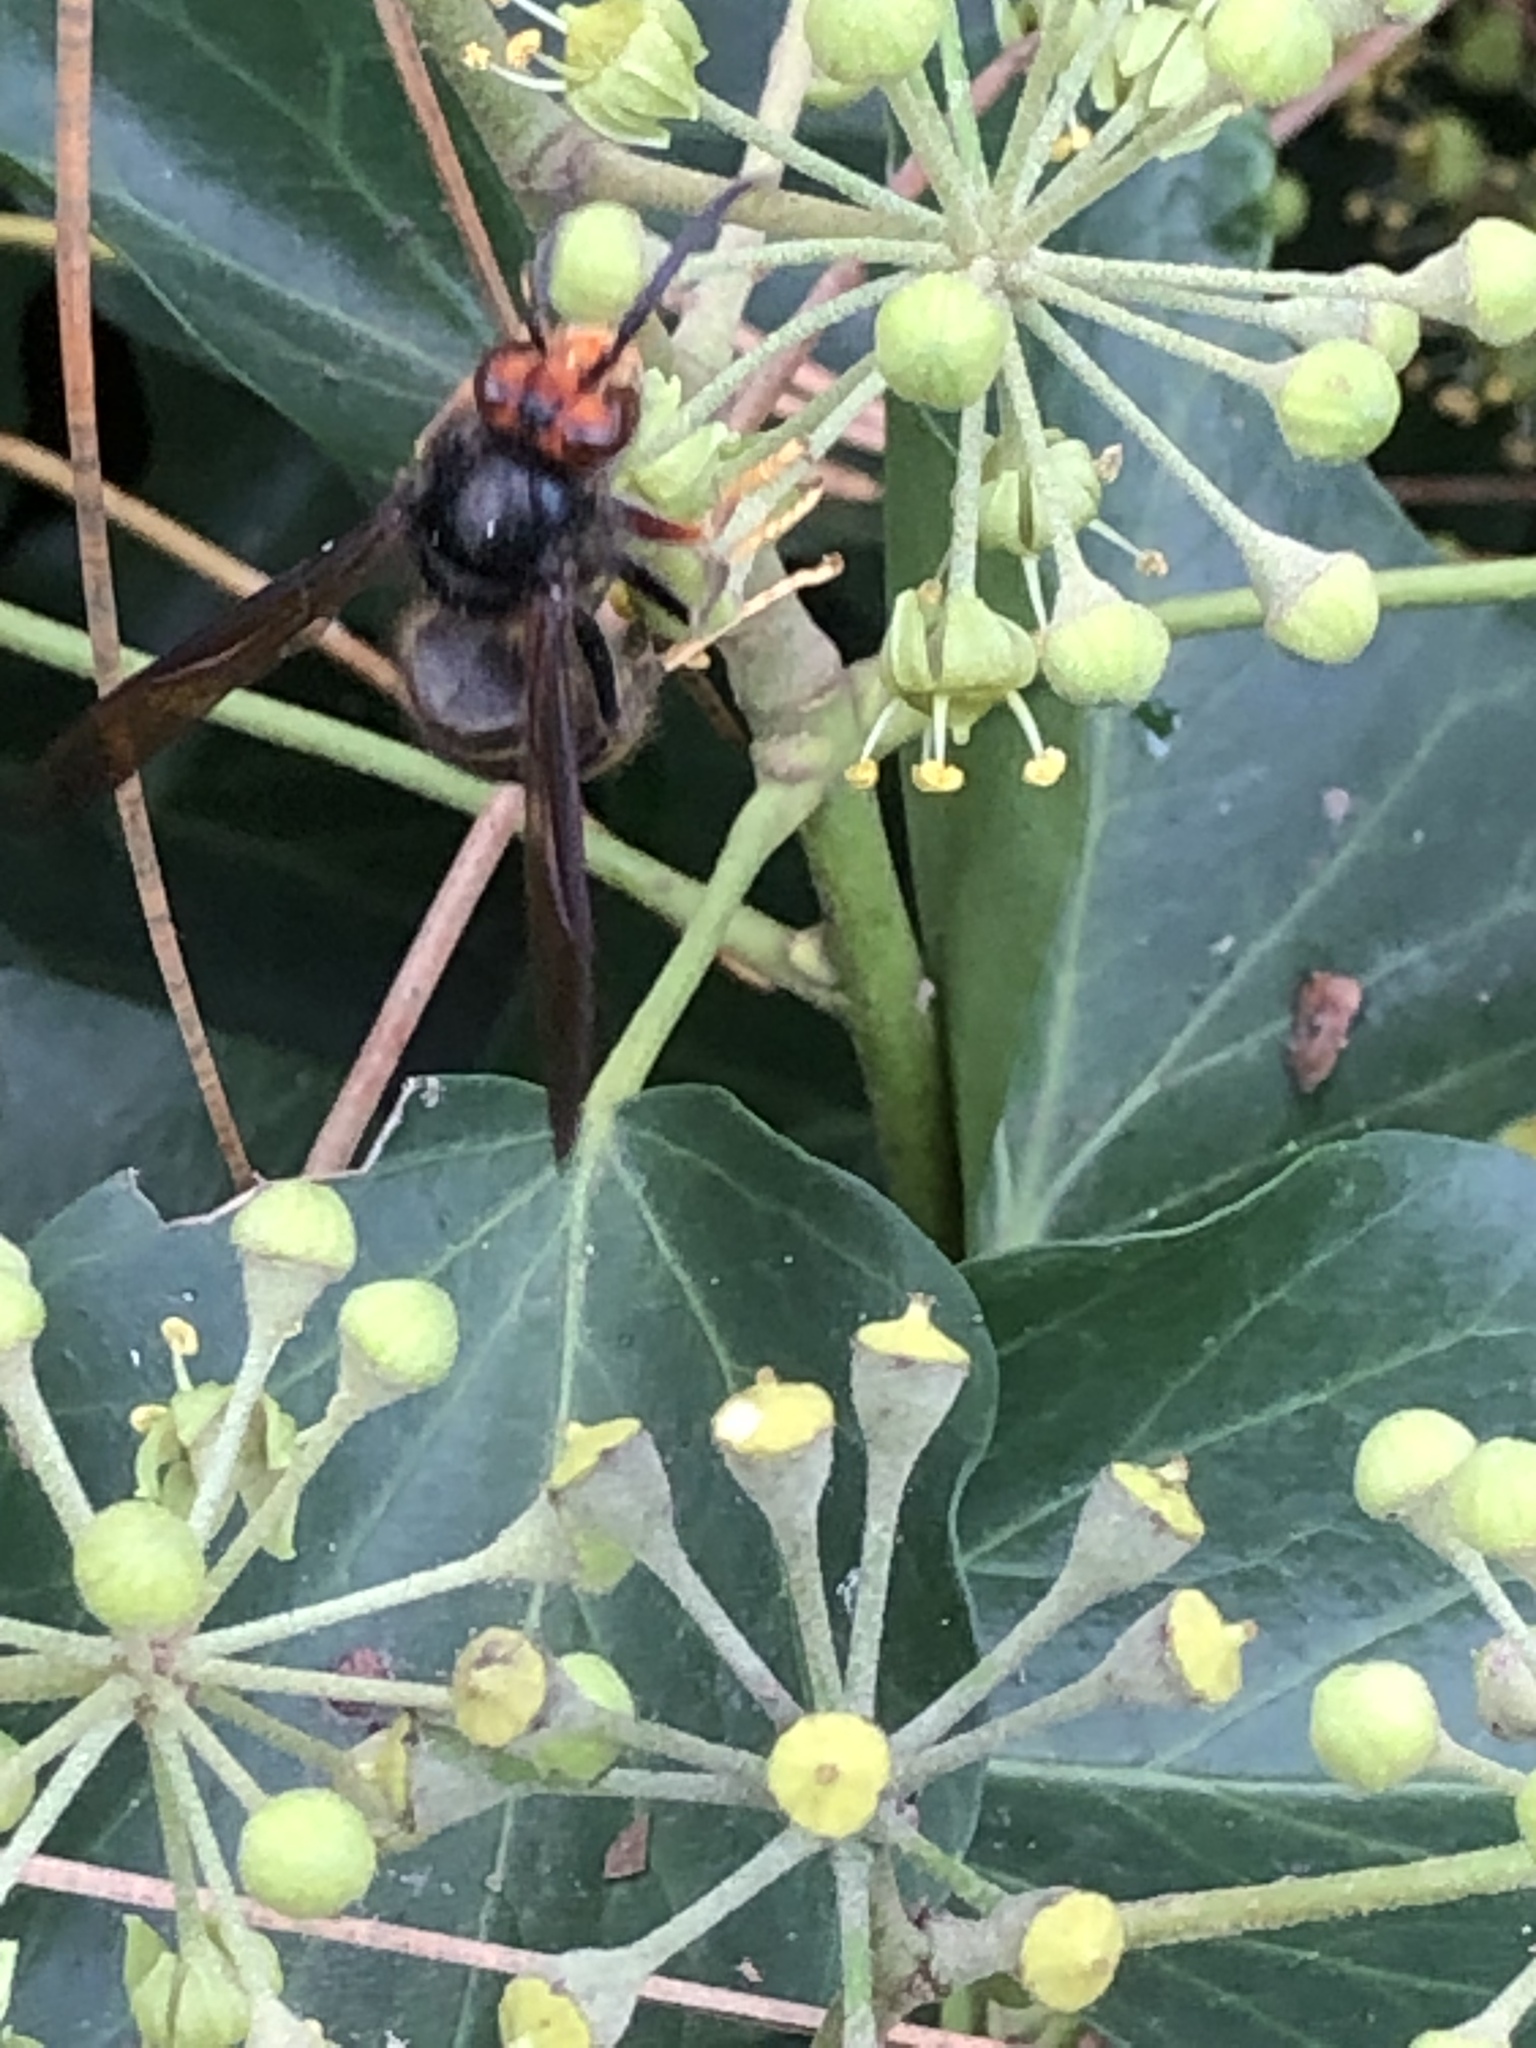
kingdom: Animalia
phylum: Arthropoda
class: Insecta
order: Hymenoptera
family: Vespidae
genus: Vespa
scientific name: Vespa velutina
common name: Asian hornet
